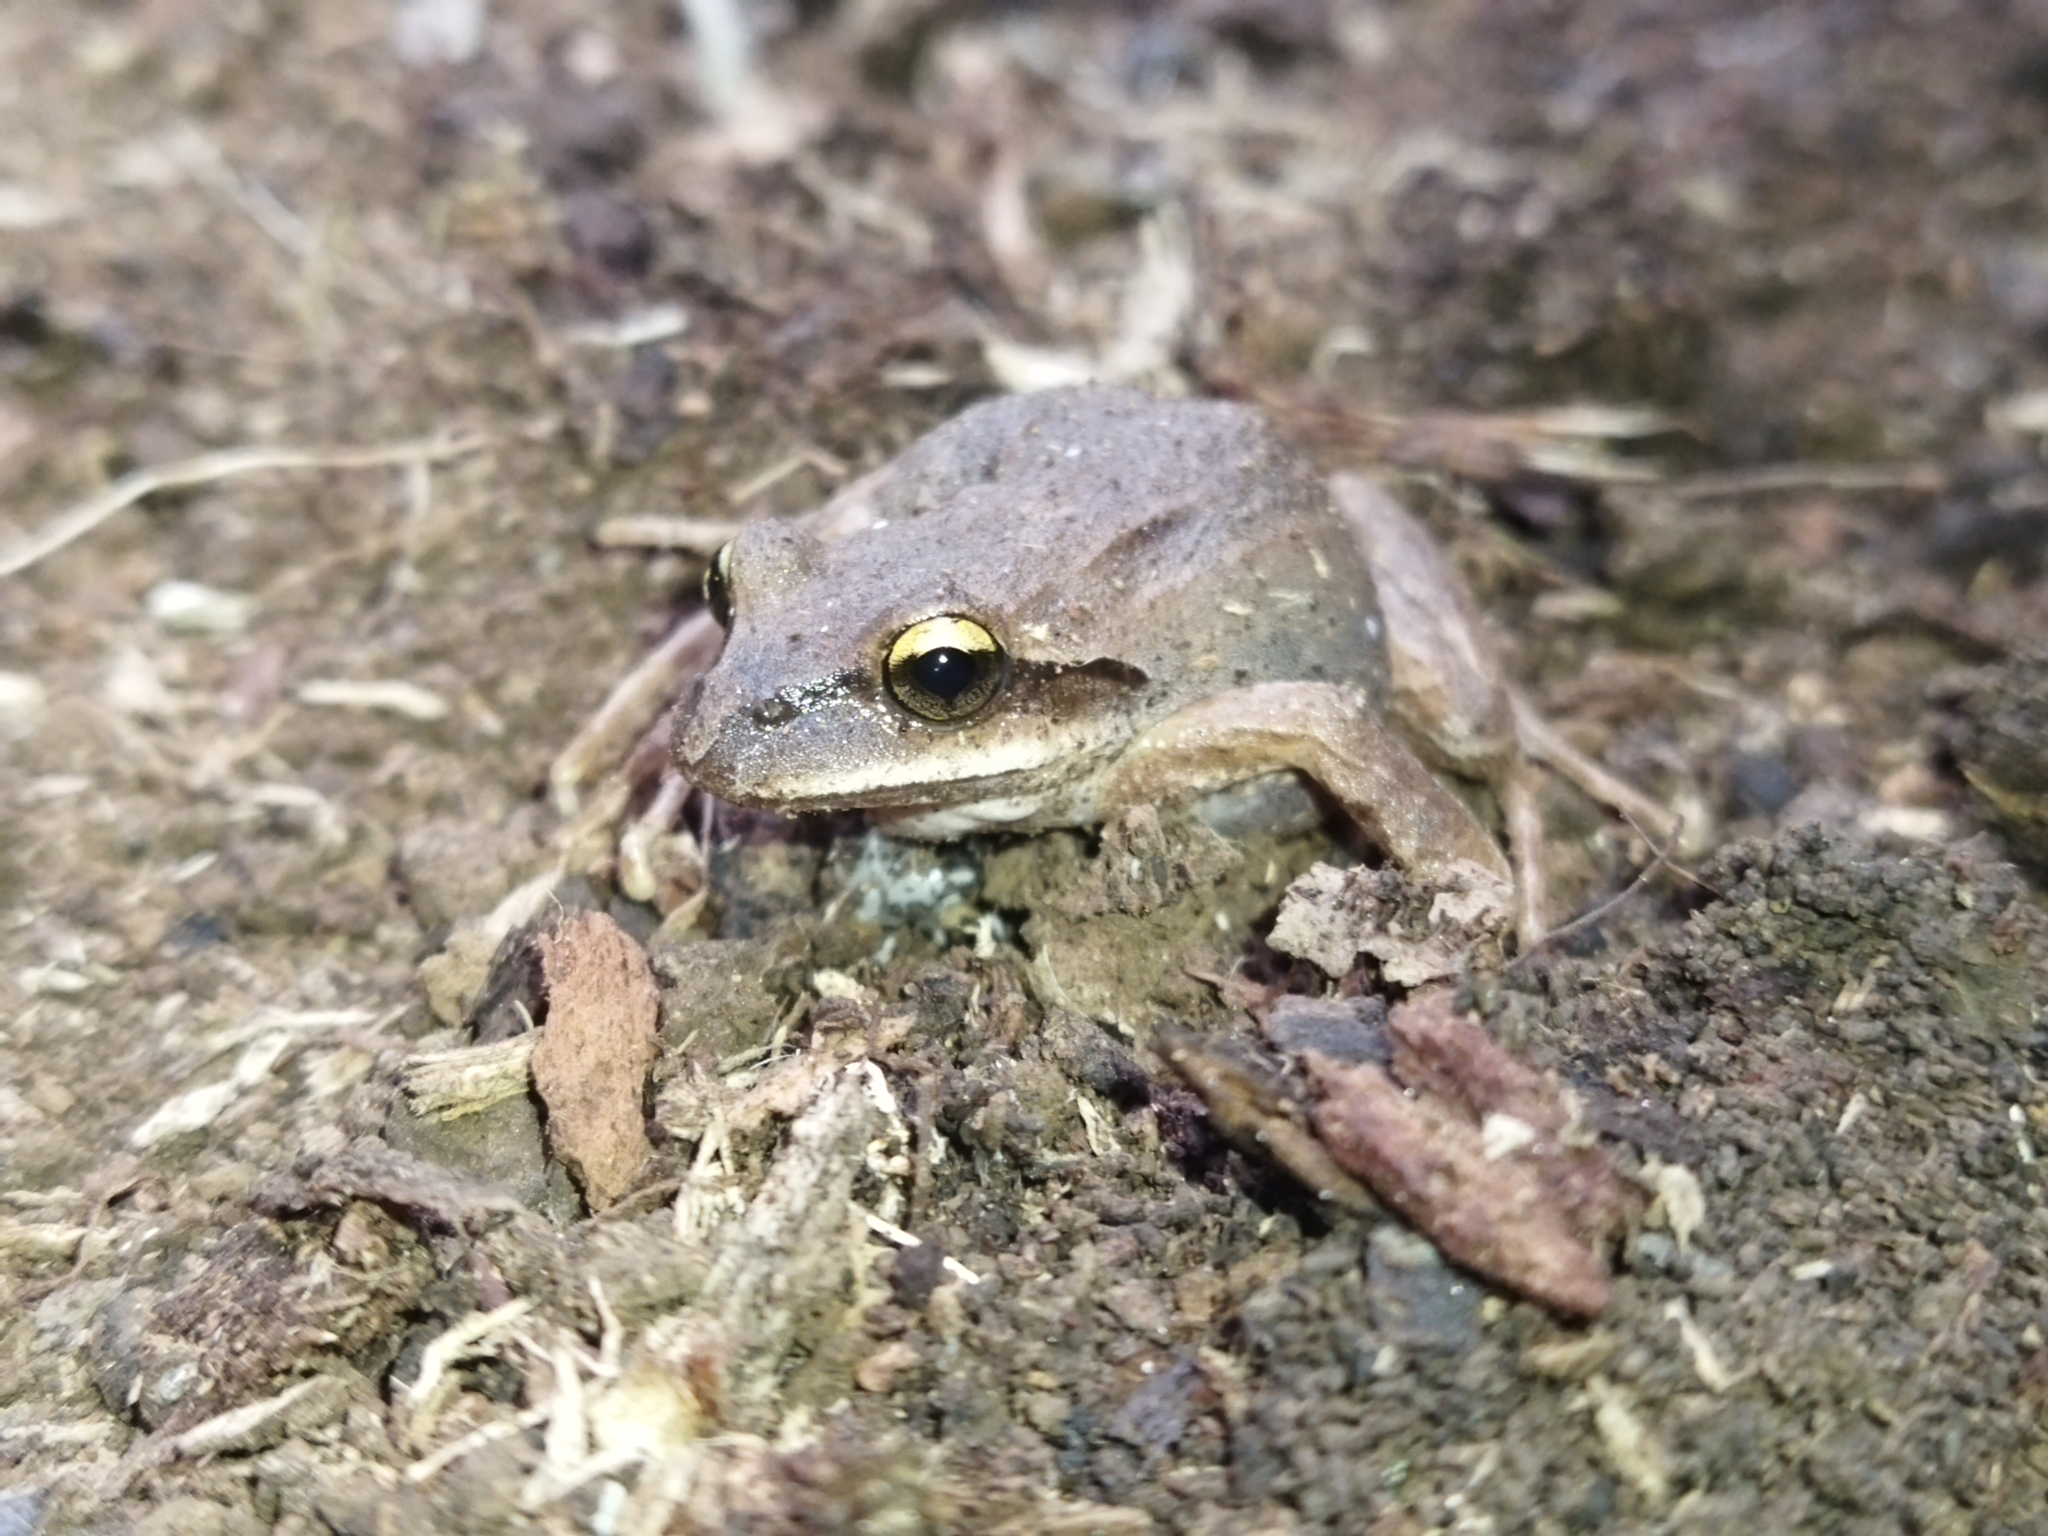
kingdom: Animalia
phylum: Chordata
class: Amphibia
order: Anura
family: Batrachylidae
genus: Batrachyla
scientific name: Batrachyla taeniata
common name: Banded wood frog
